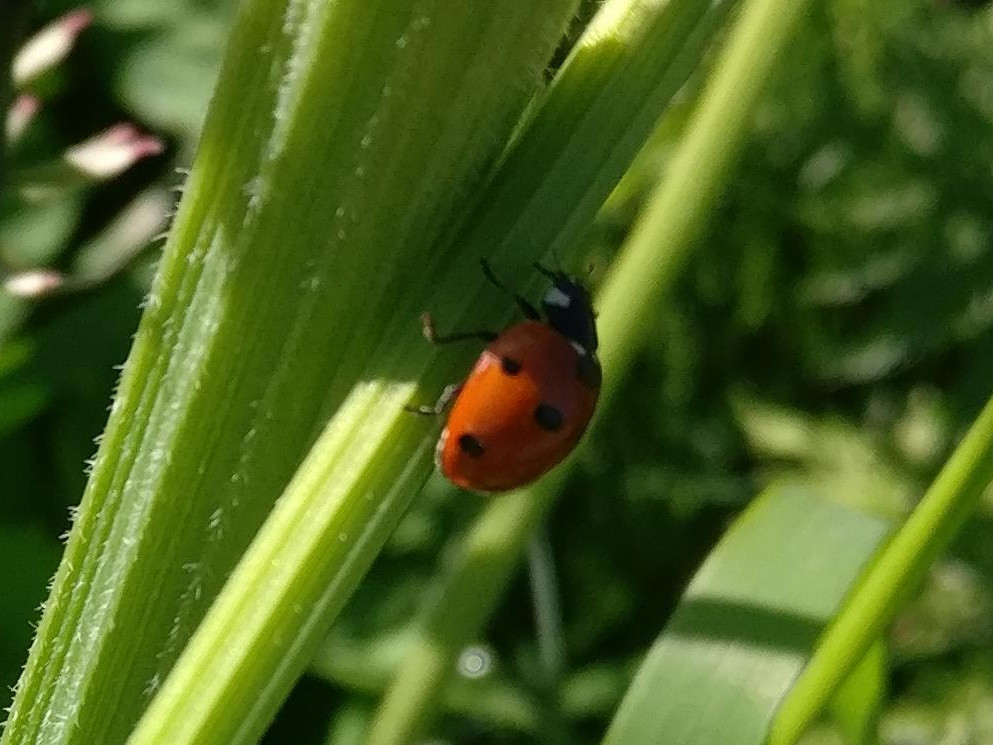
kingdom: Animalia
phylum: Arthropoda
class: Insecta
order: Coleoptera
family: Coccinellidae
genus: Coccinella
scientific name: Coccinella septempunctata
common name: Sevenspotted lady beetle
